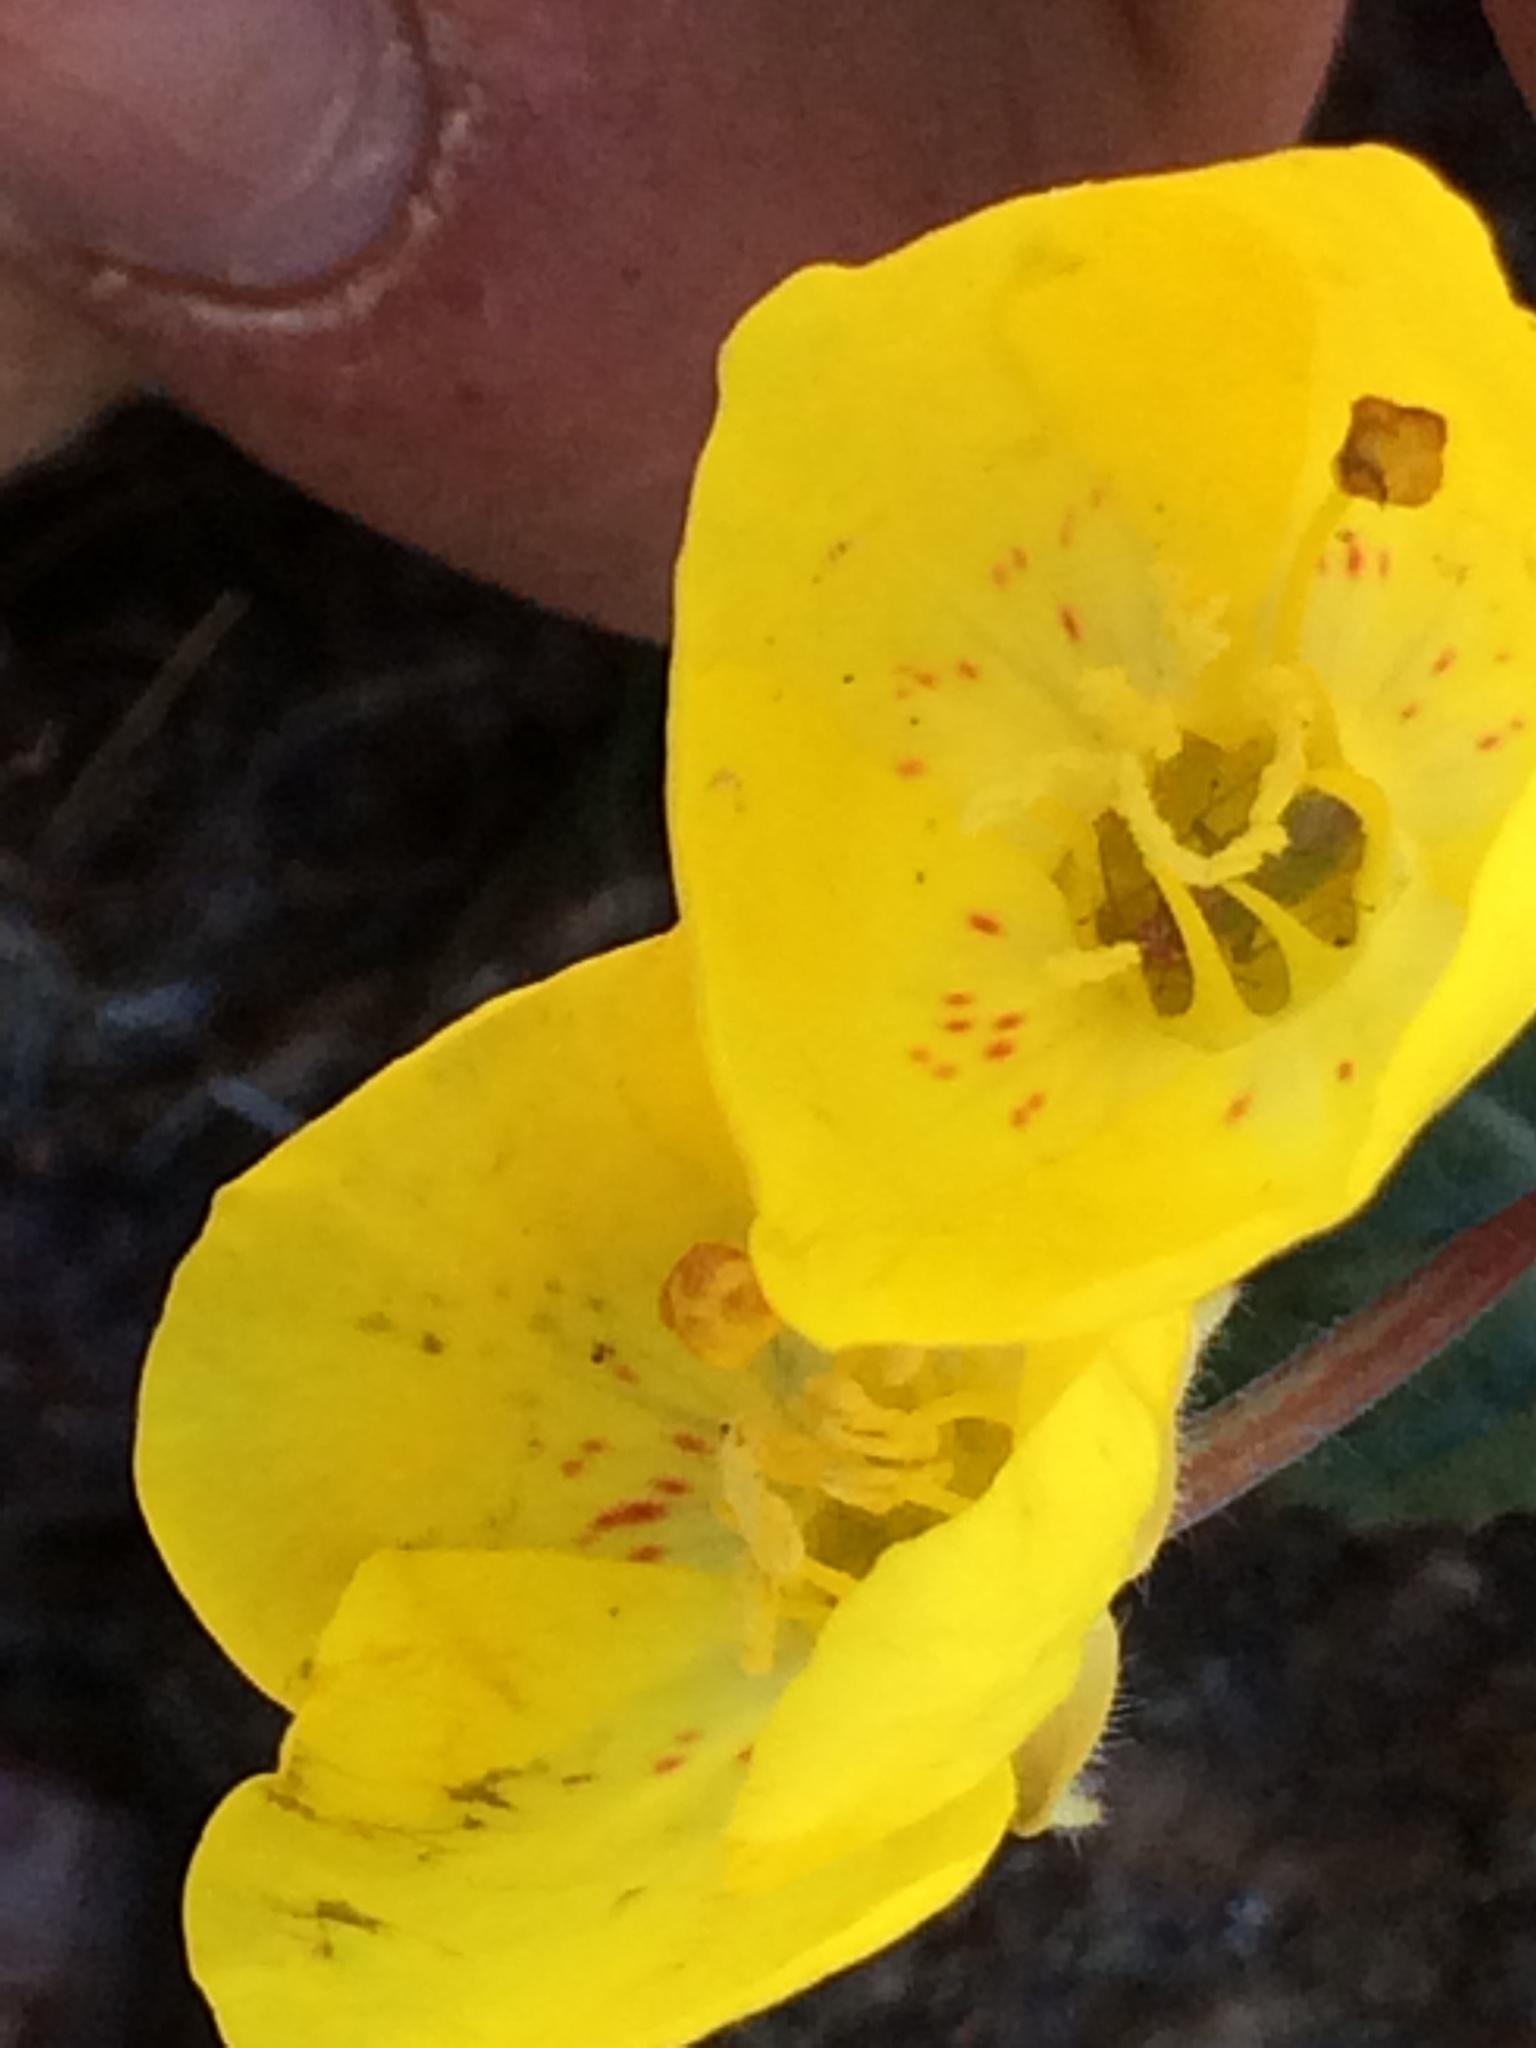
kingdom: Plantae
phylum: Tracheophyta
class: Magnoliopsida
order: Myrtales
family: Onagraceae
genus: Chylismia
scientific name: Chylismia brevipes
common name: Yellow cups
